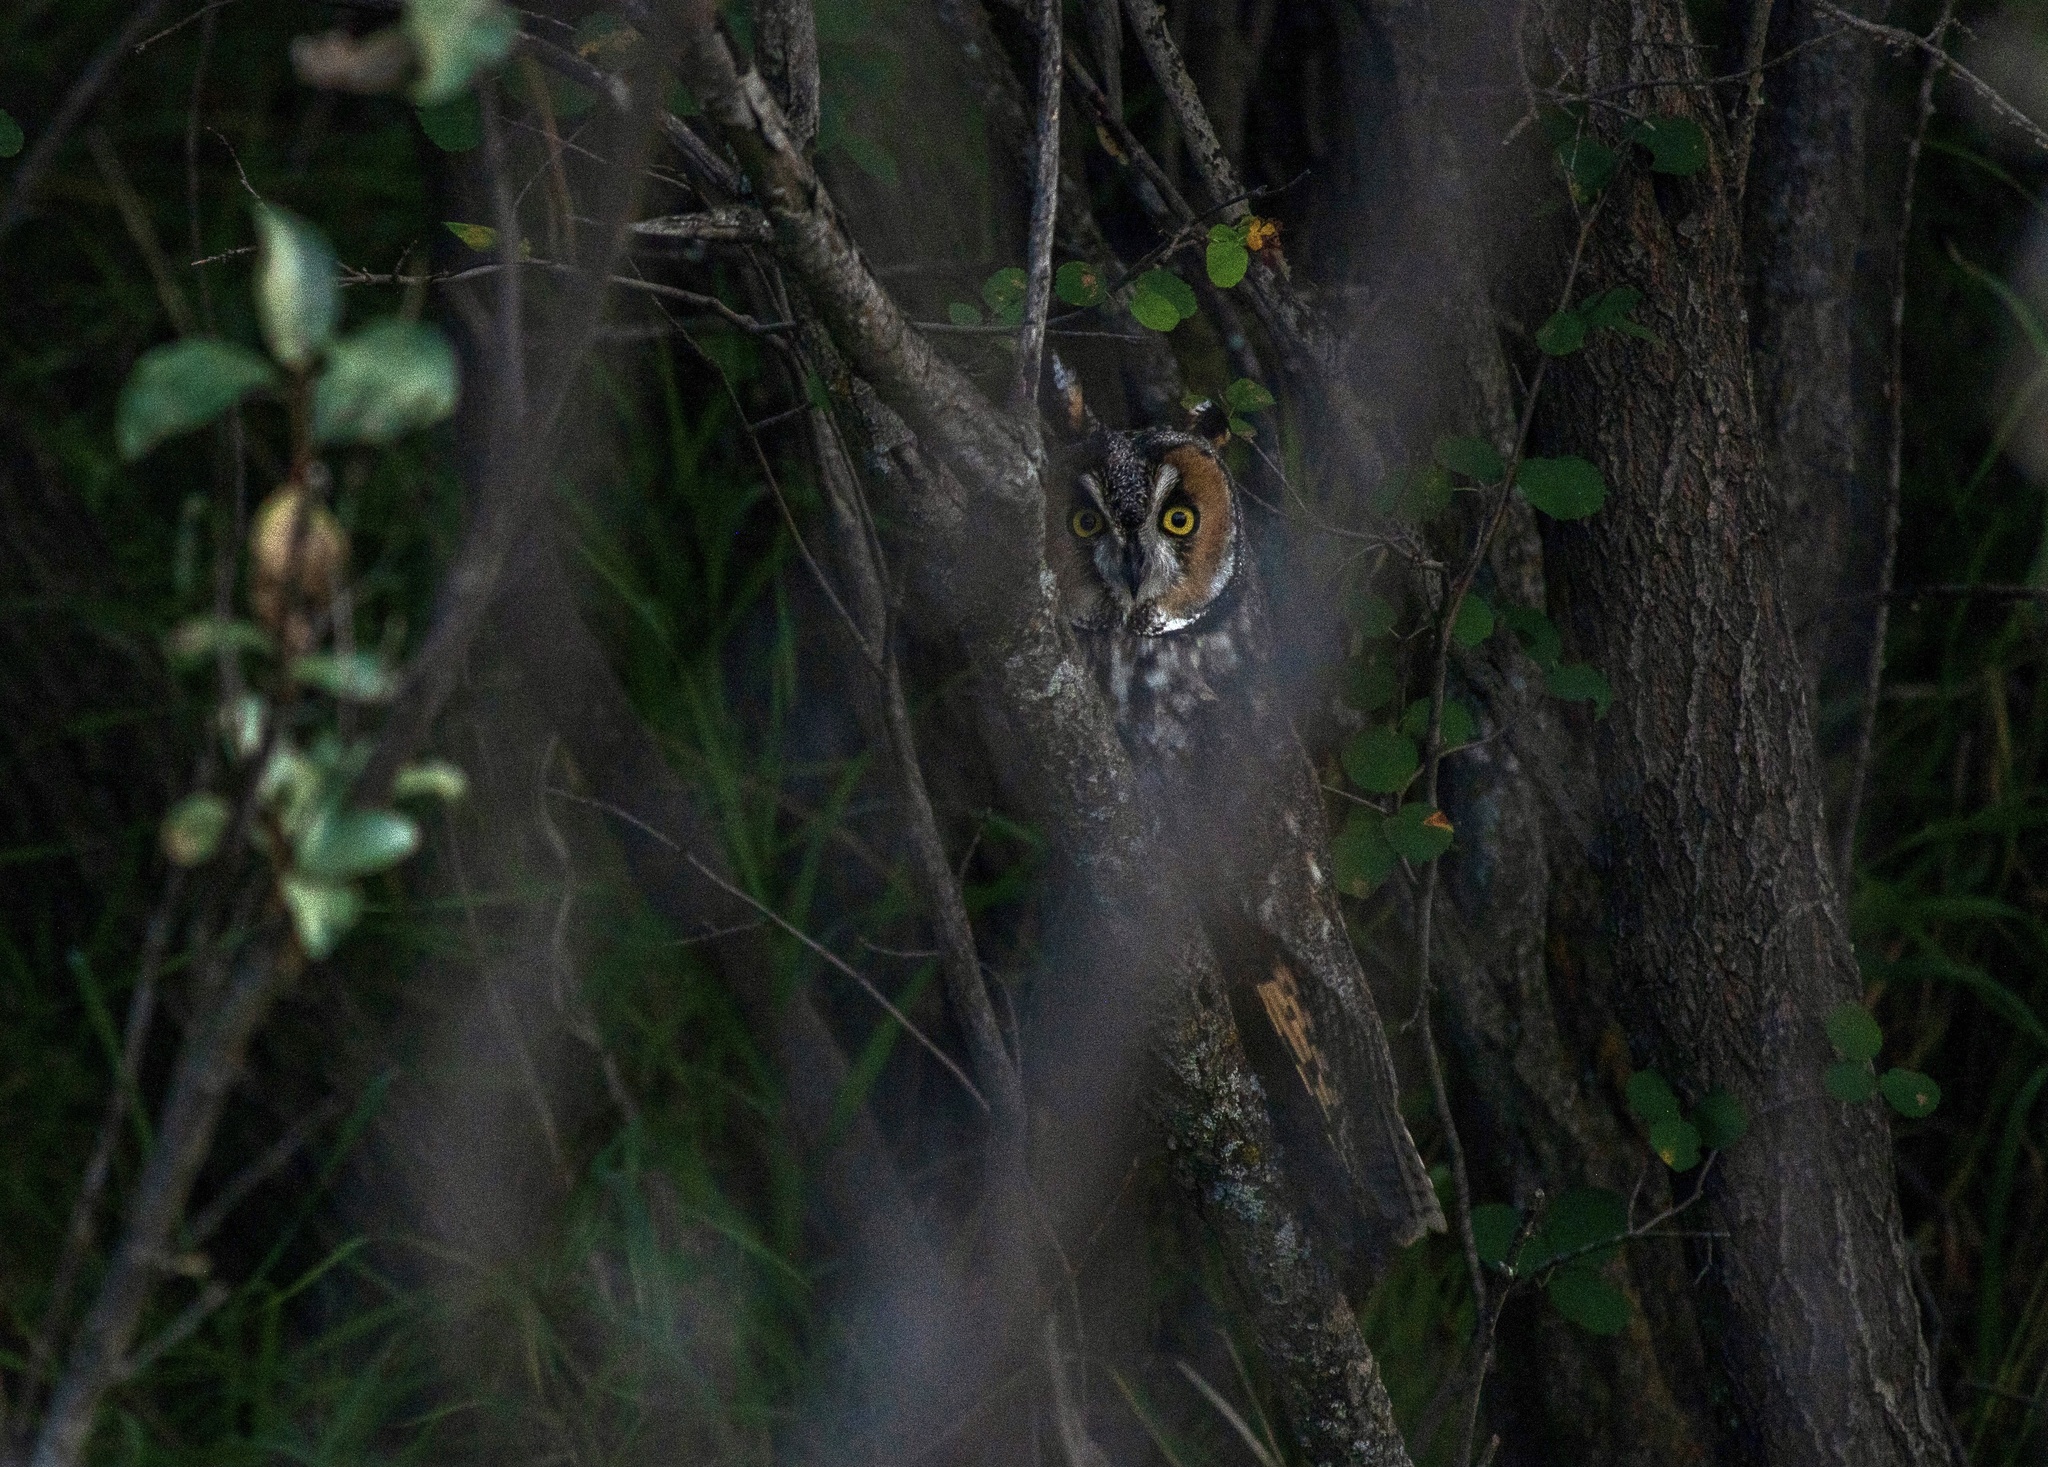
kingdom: Animalia
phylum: Chordata
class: Aves
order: Strigiformes
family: Strigidae
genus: Asio
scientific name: Asio otus
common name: Long-eared owl
